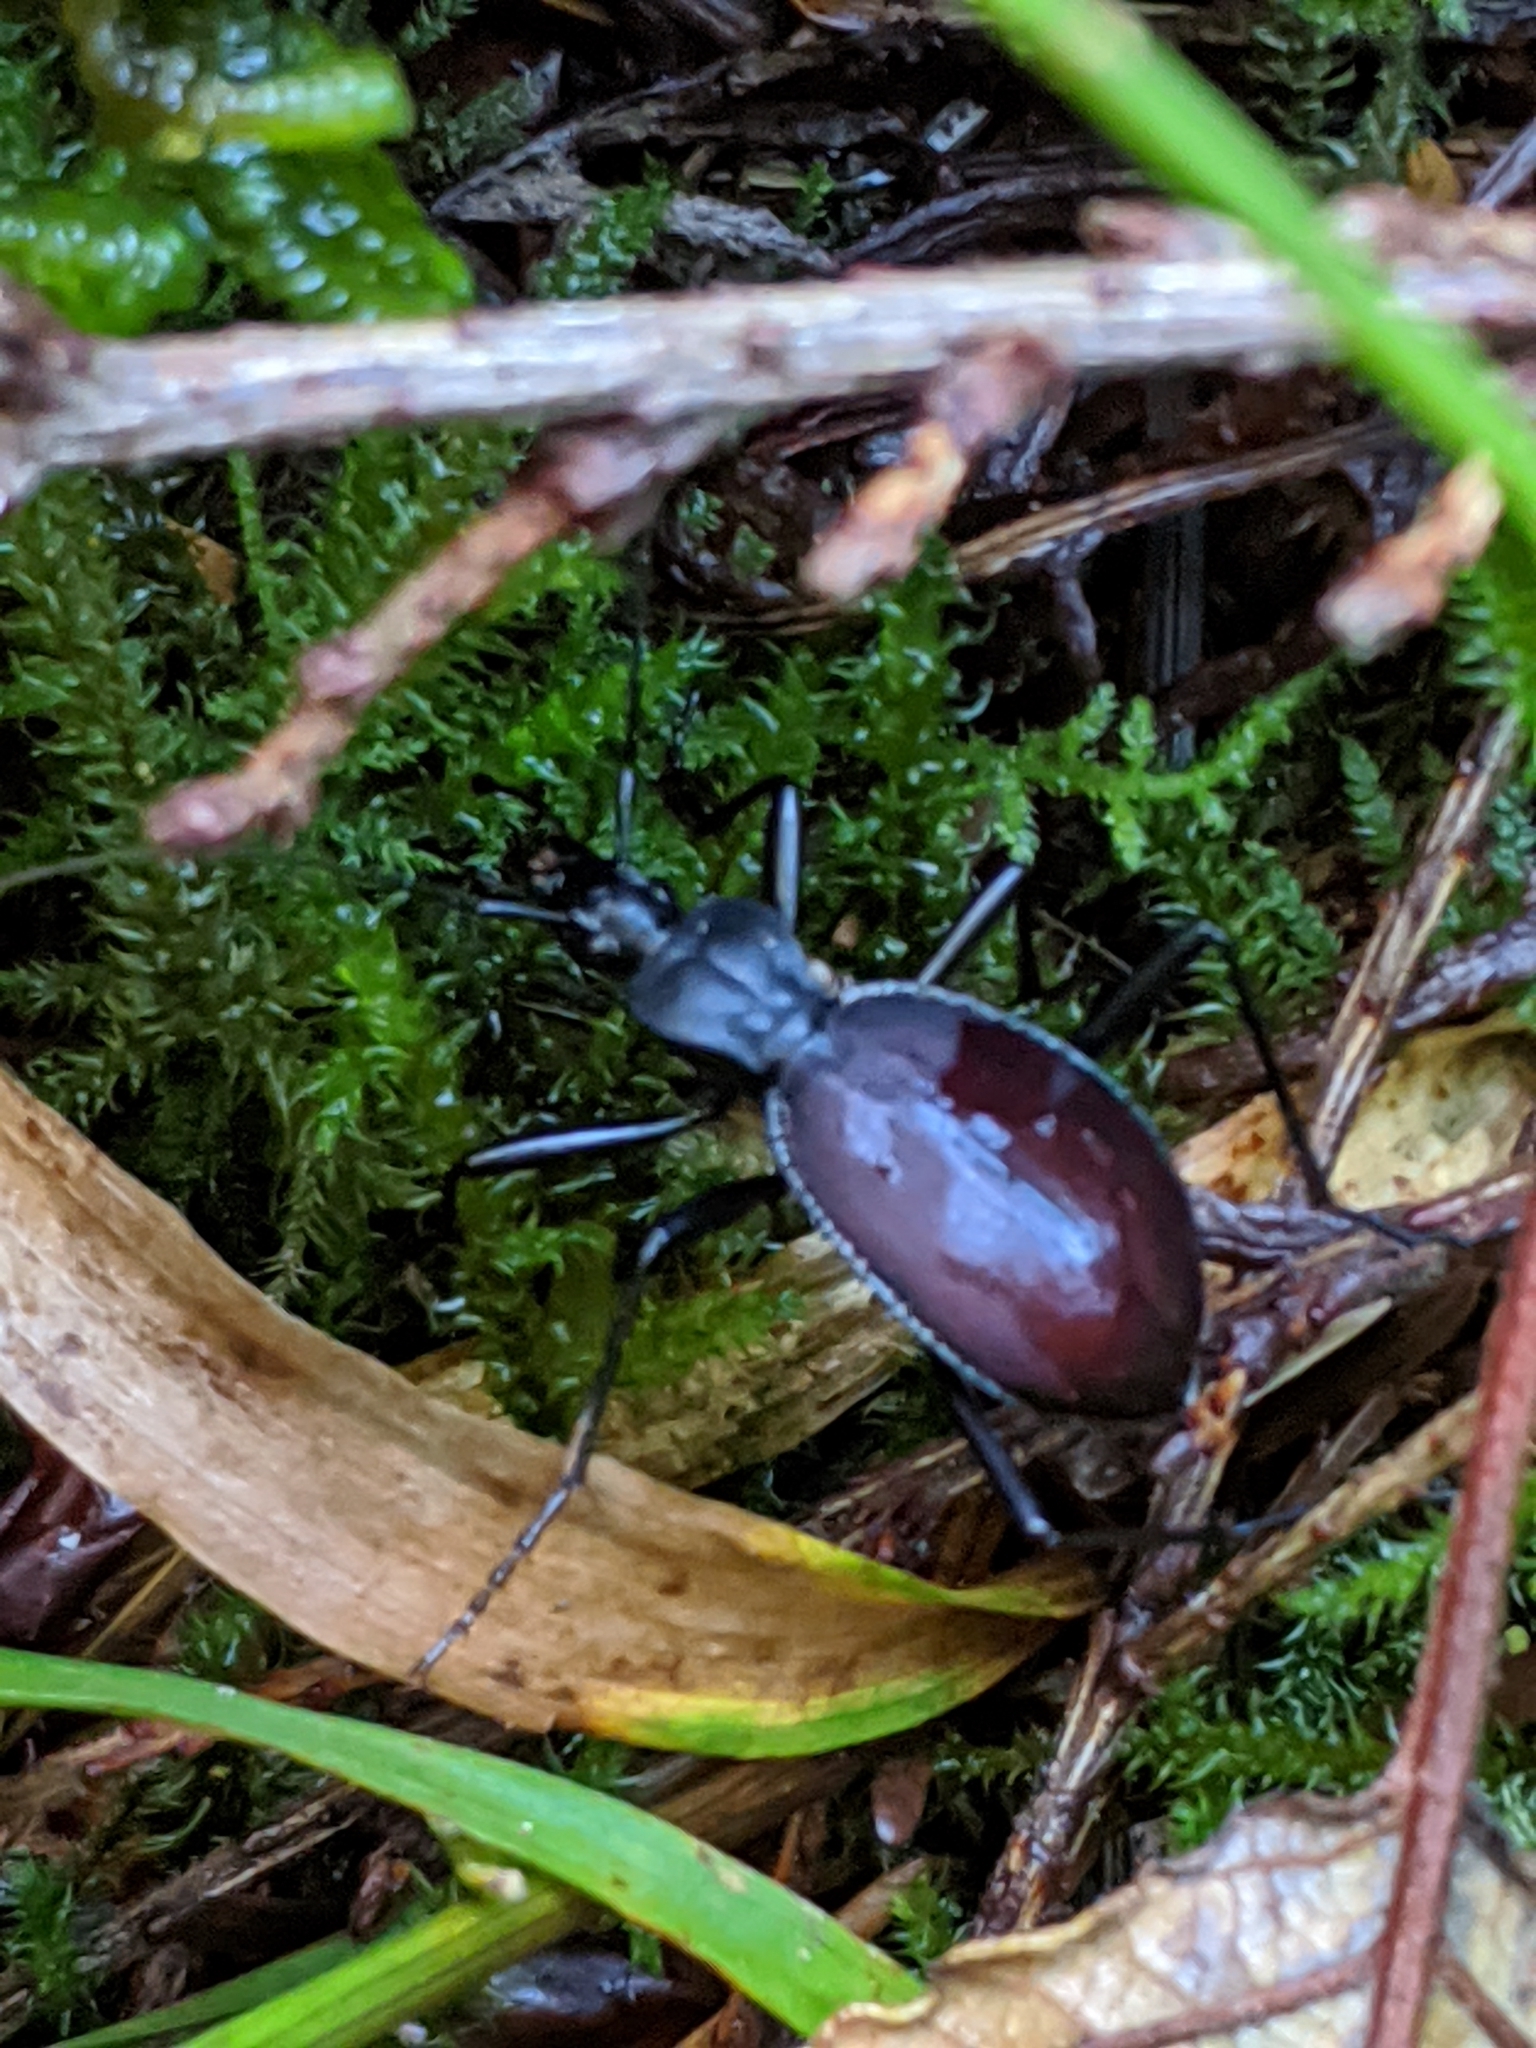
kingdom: Animalia
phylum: Arthropoda
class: Insecta
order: Coleoptera
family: Carabidae
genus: Scaphinotus
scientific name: Scaphinotus angusticollis
